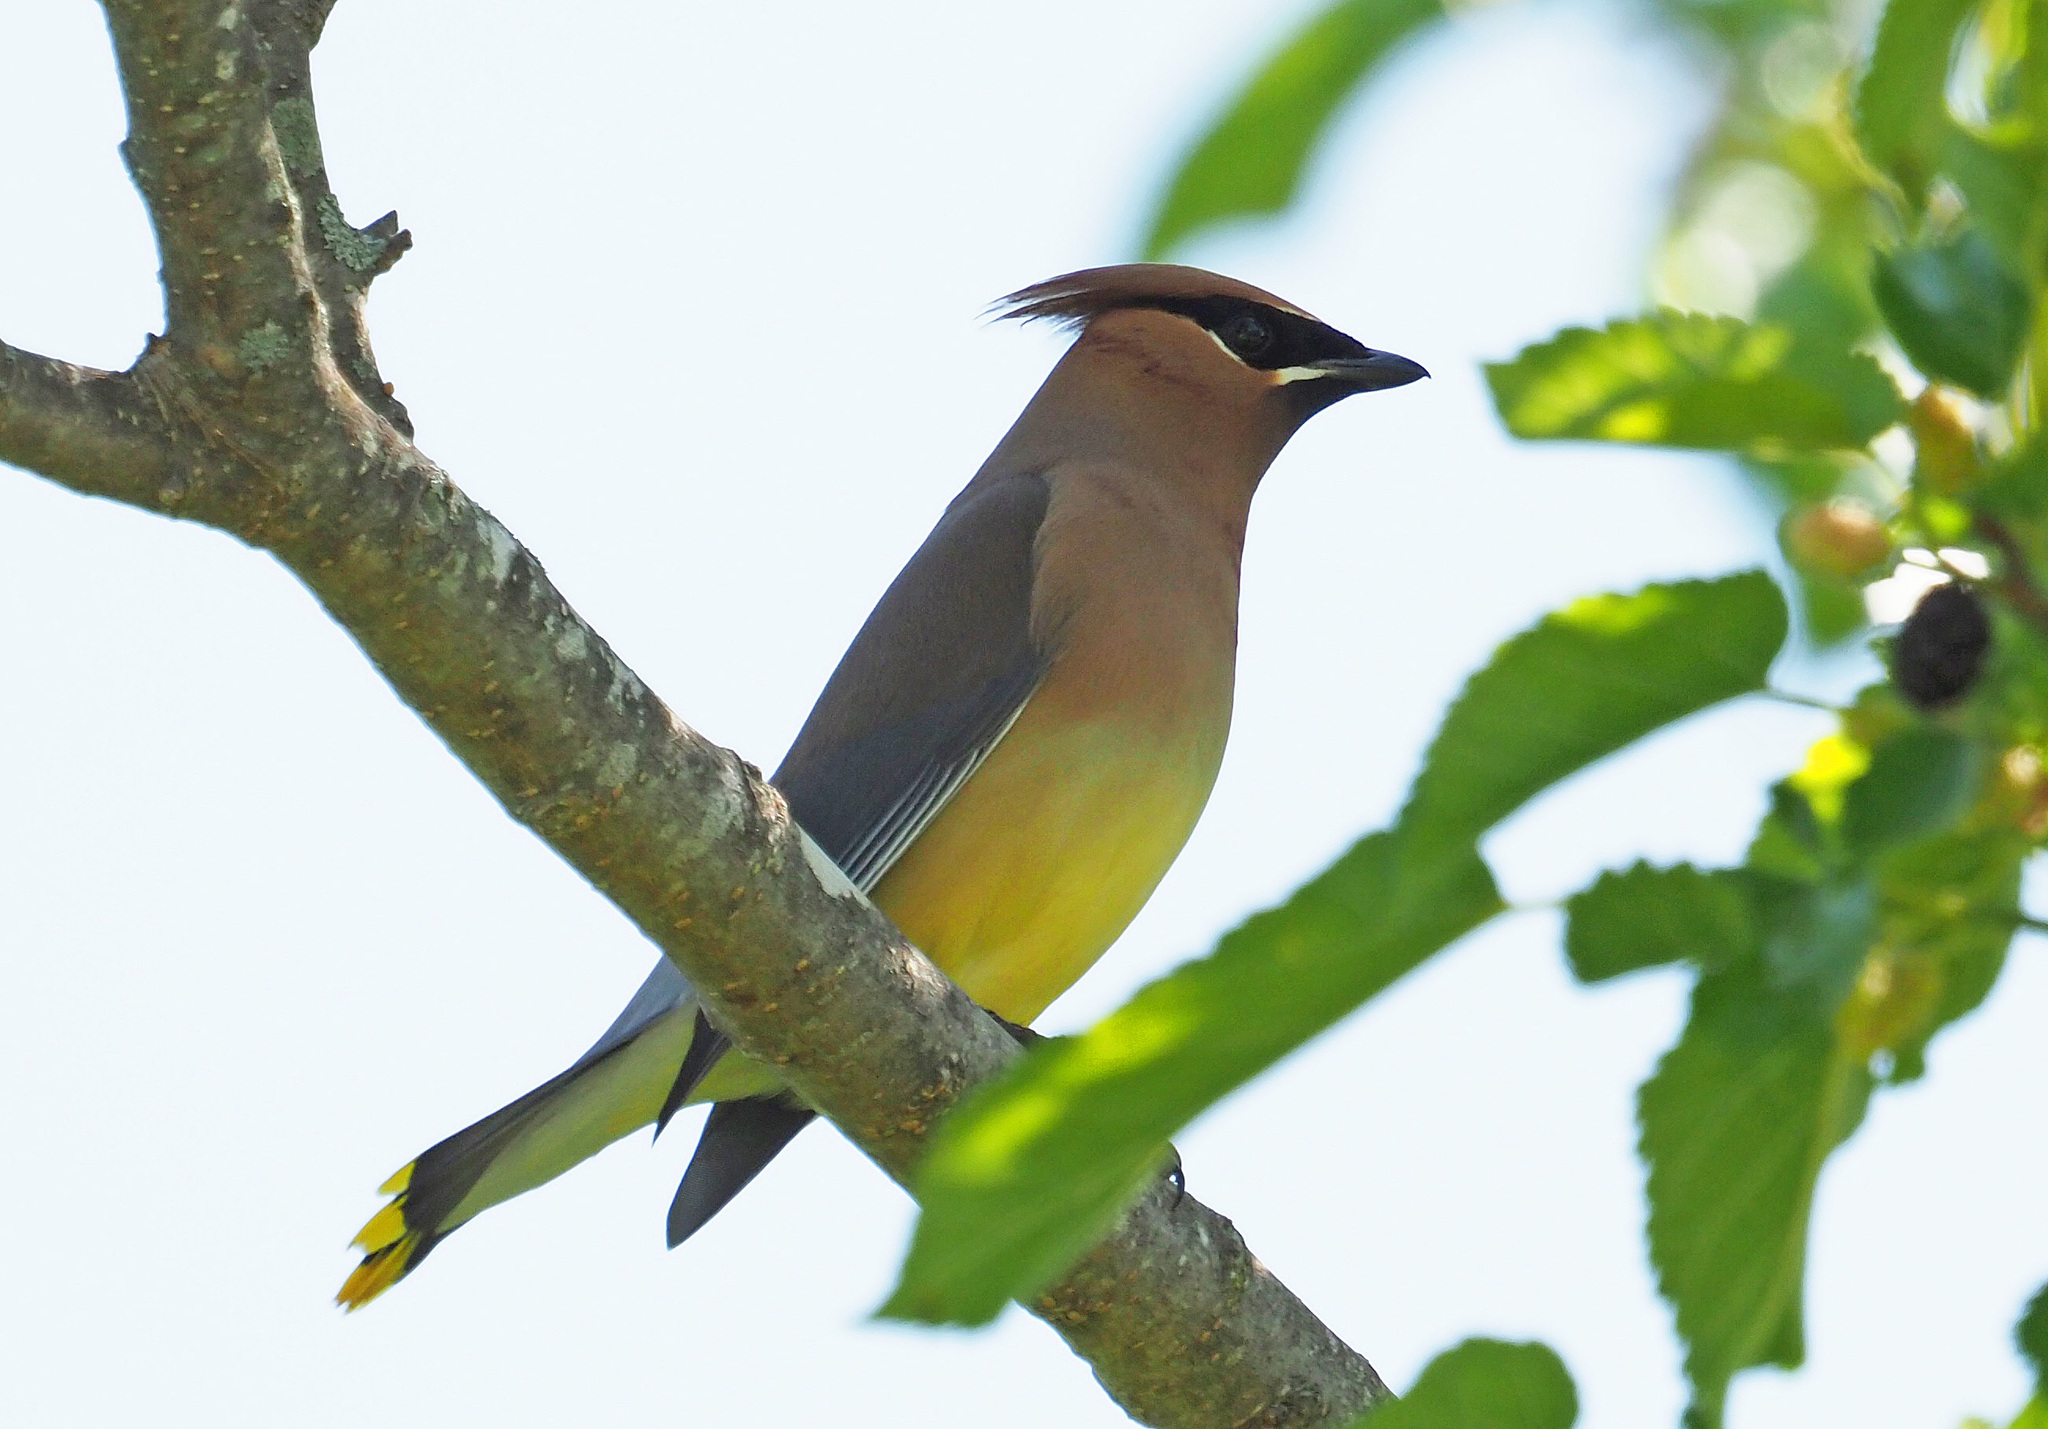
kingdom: Animalia
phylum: Chordata
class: Aves
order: Passeriformes
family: Bombycillidae
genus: Bombycilla
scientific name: Bombycilla cedrorum
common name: Cedar waxwing
